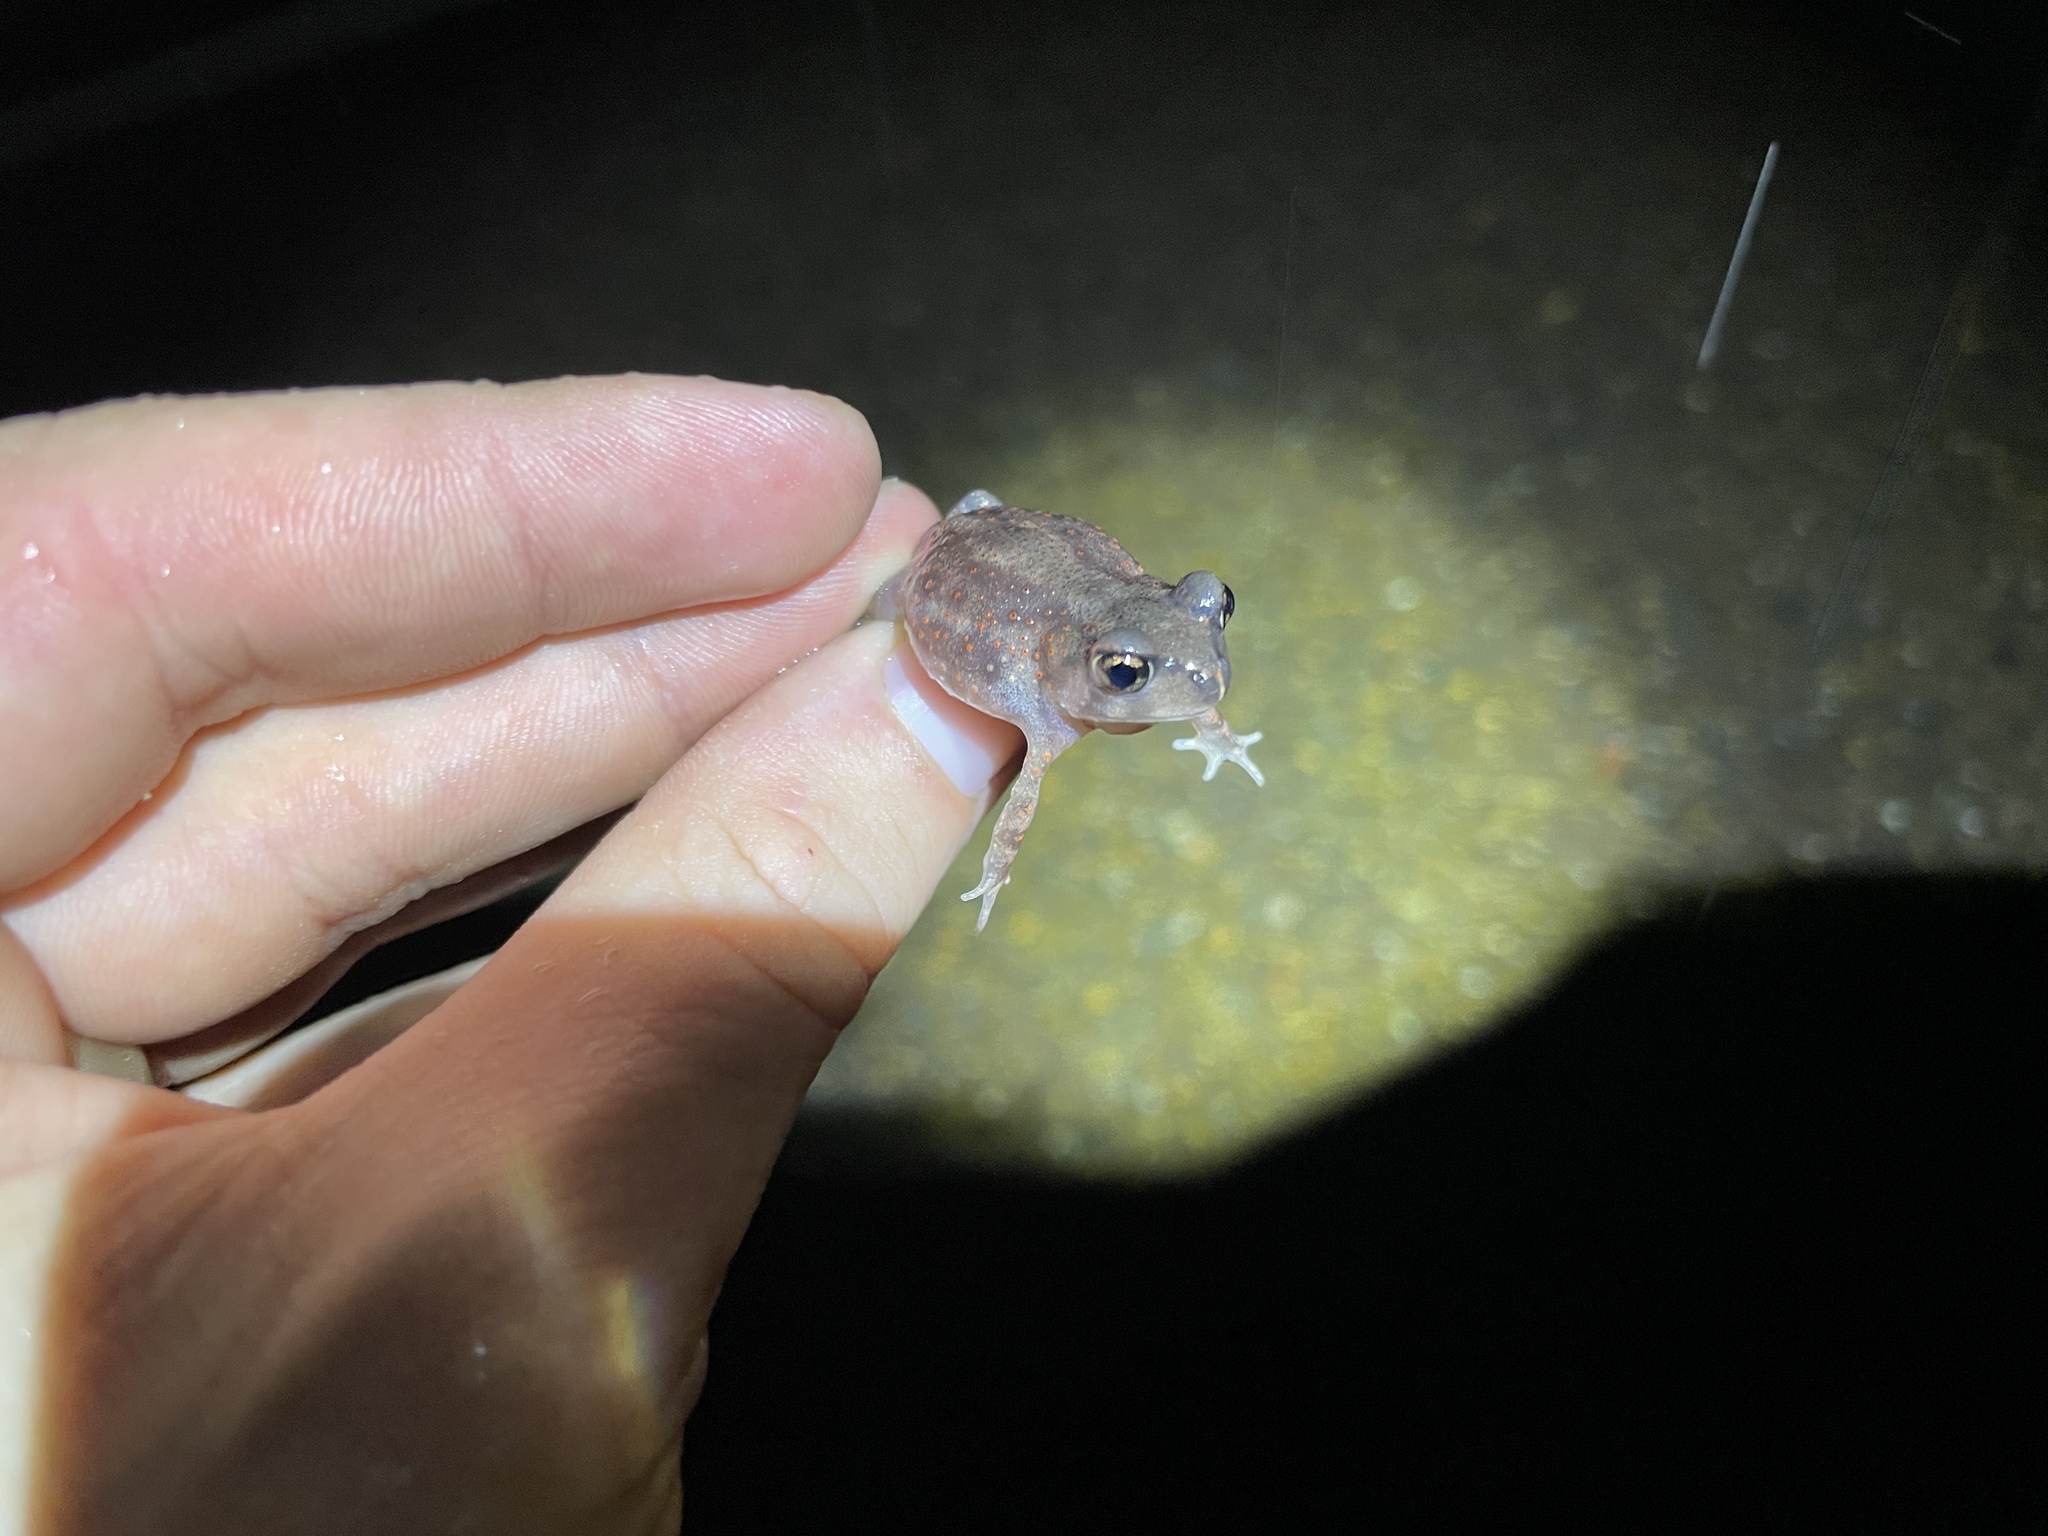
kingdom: Animalia
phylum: Chordata
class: Amphibia
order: Anura
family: Scaphiopodidae
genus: Scaphiopus
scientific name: Scaphiopus holbrookii
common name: Eastern spadefoot toad
